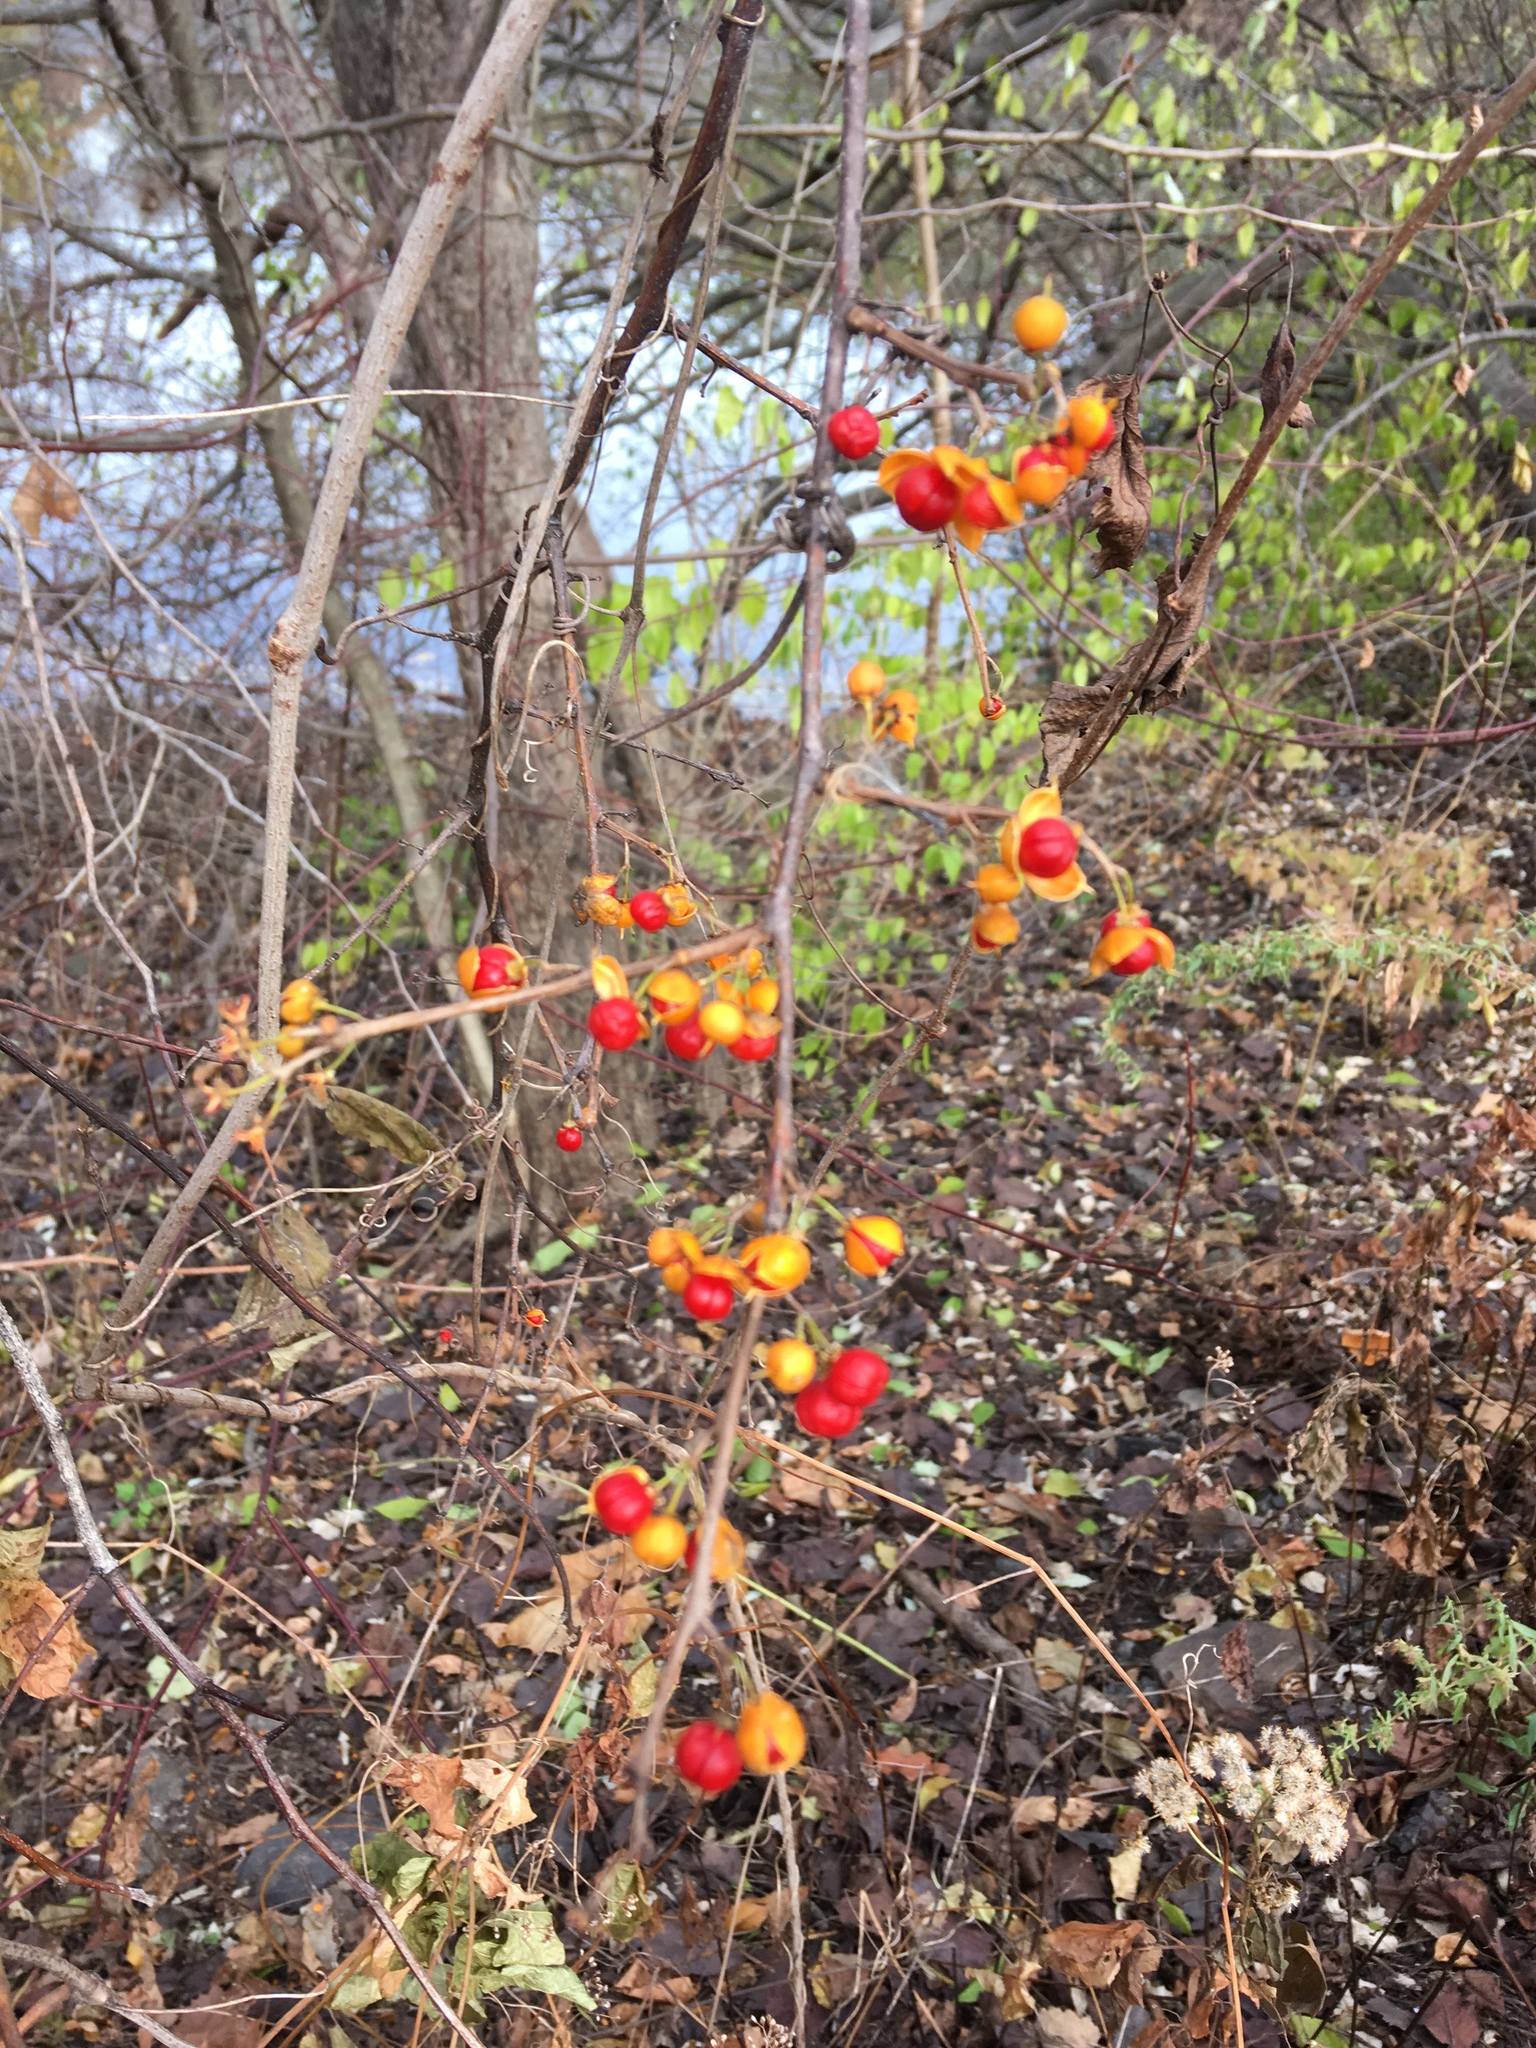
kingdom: Plantae
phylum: Tracheophyta
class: Magnoliopsida
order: Celastrales
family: Celastraceae
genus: Celastrus
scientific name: Celastrus orbiculatus
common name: Oriental bittersweet
